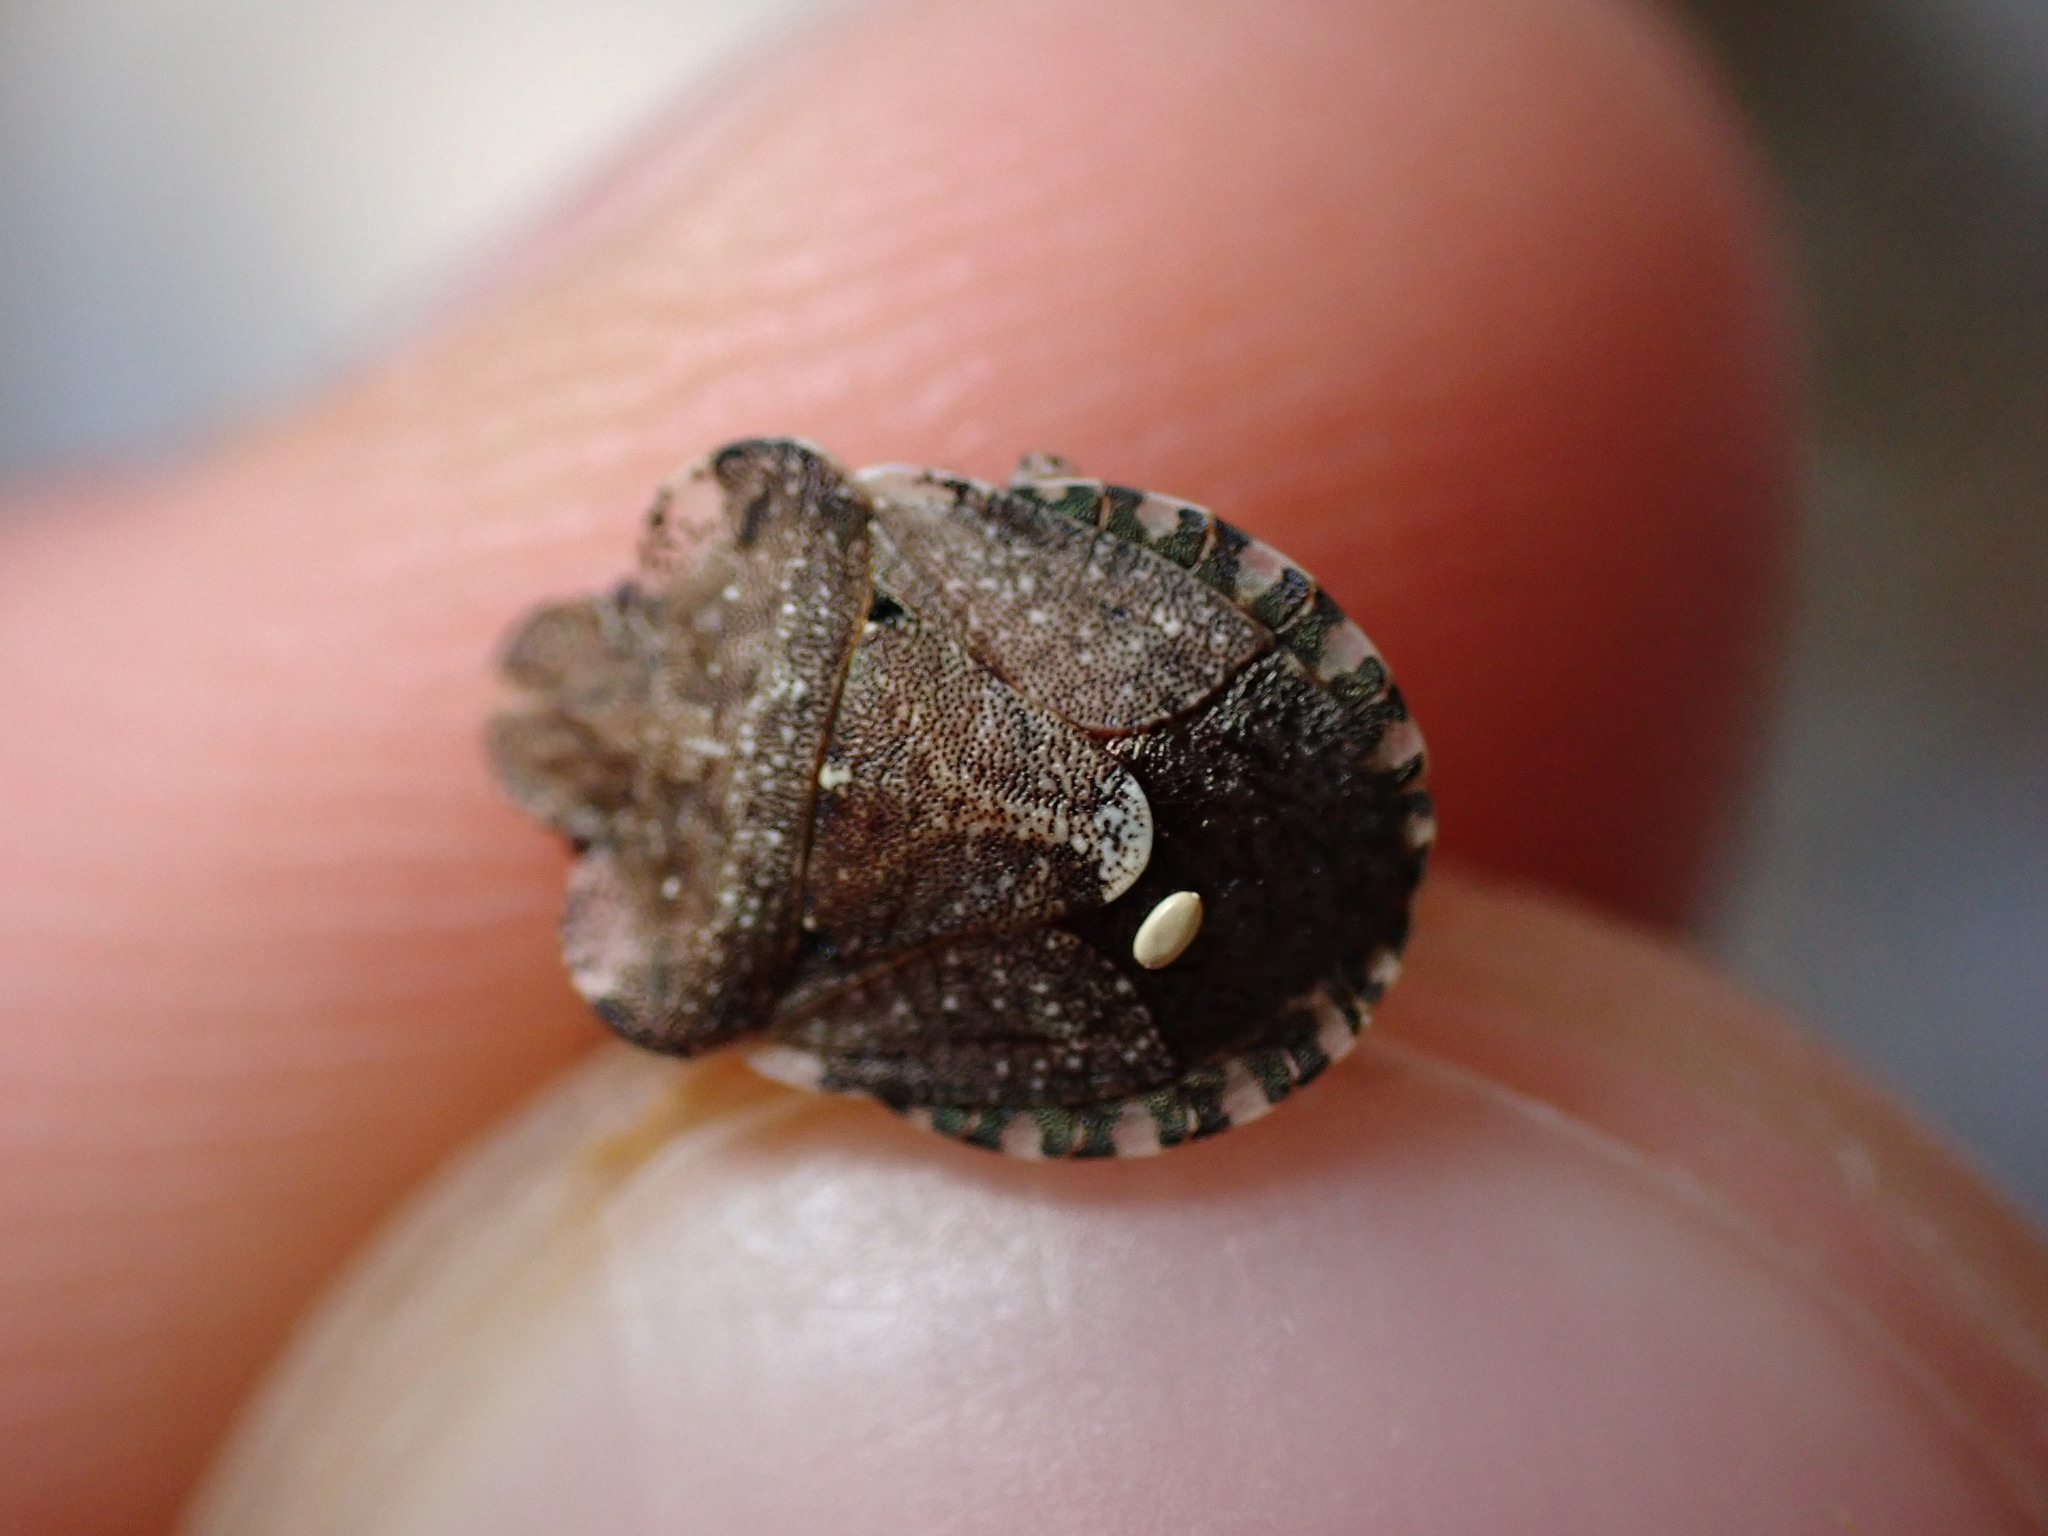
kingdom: Animalia
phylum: Arthropoda
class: Insecta
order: Hemiptera
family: Pentatomidae
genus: Dyroderes
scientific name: Dyroderes umbraculatus
